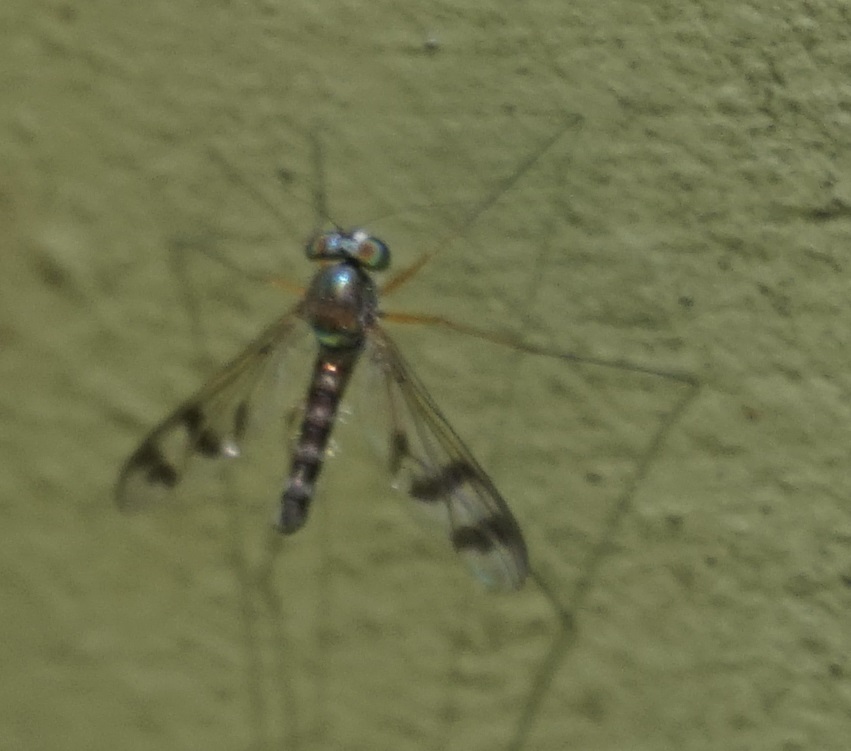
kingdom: Animalia
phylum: Arthropoda
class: Insecta
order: Diptera
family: Dolichopodidae
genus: Heteropsilopus
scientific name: Heteropsilopus squamifer
